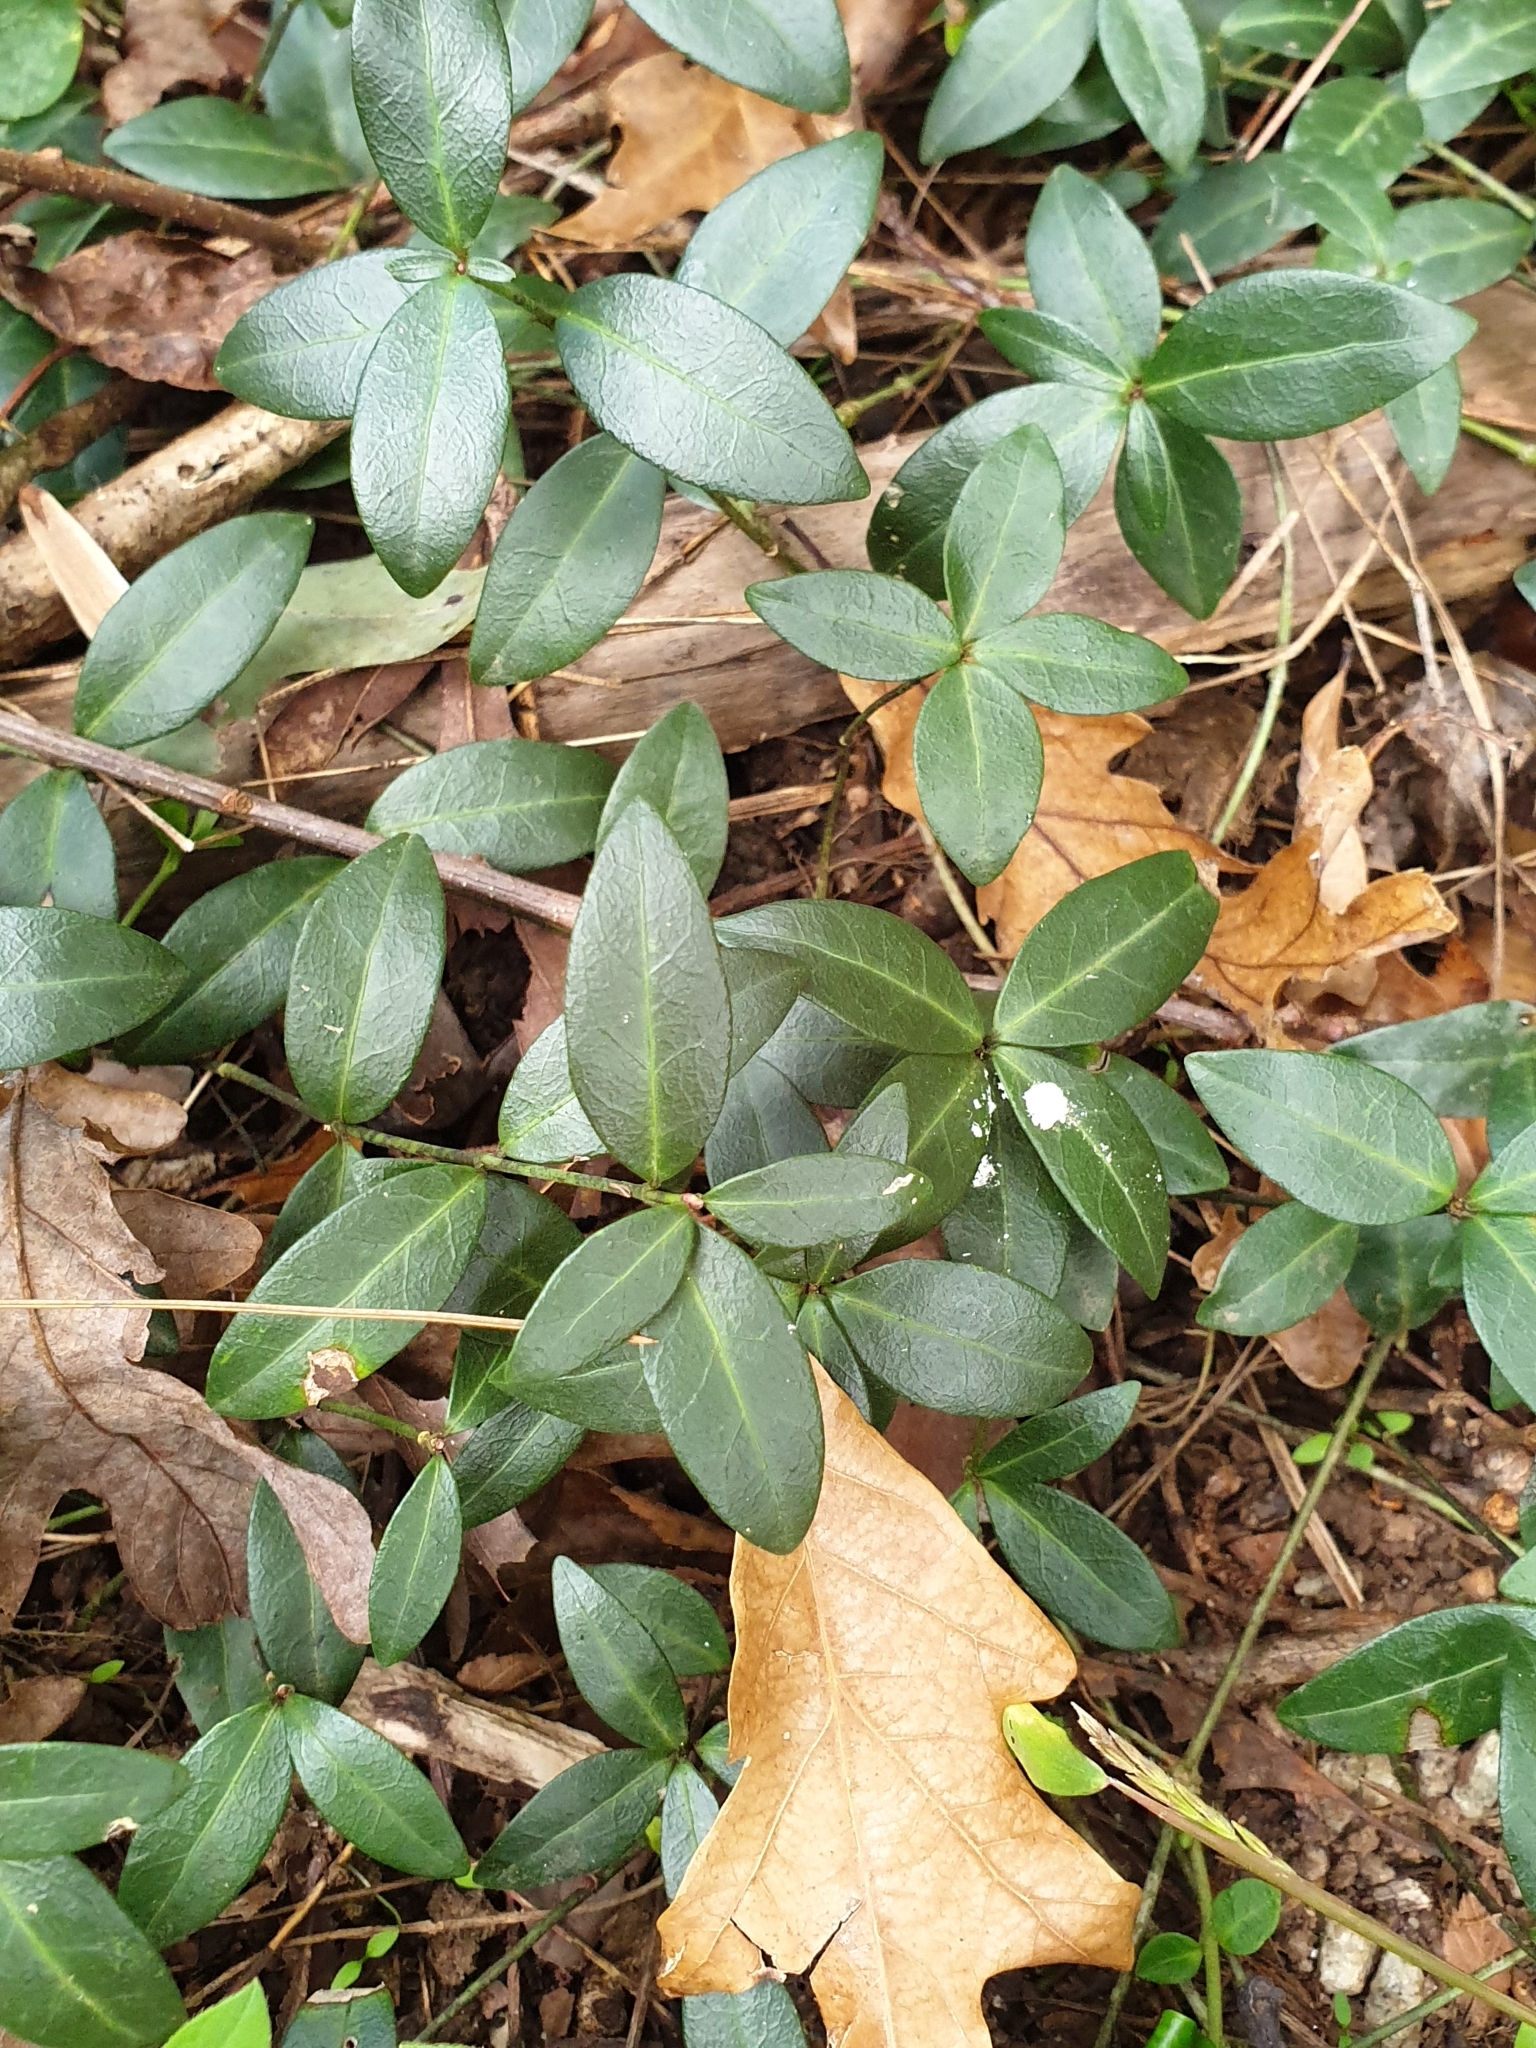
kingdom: Plantae
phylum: Tracheophyta
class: Magnoliopsida
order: Gentianales
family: Apocynaceae
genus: Vinca
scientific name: Vinca minor
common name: Lesser periwinkle
